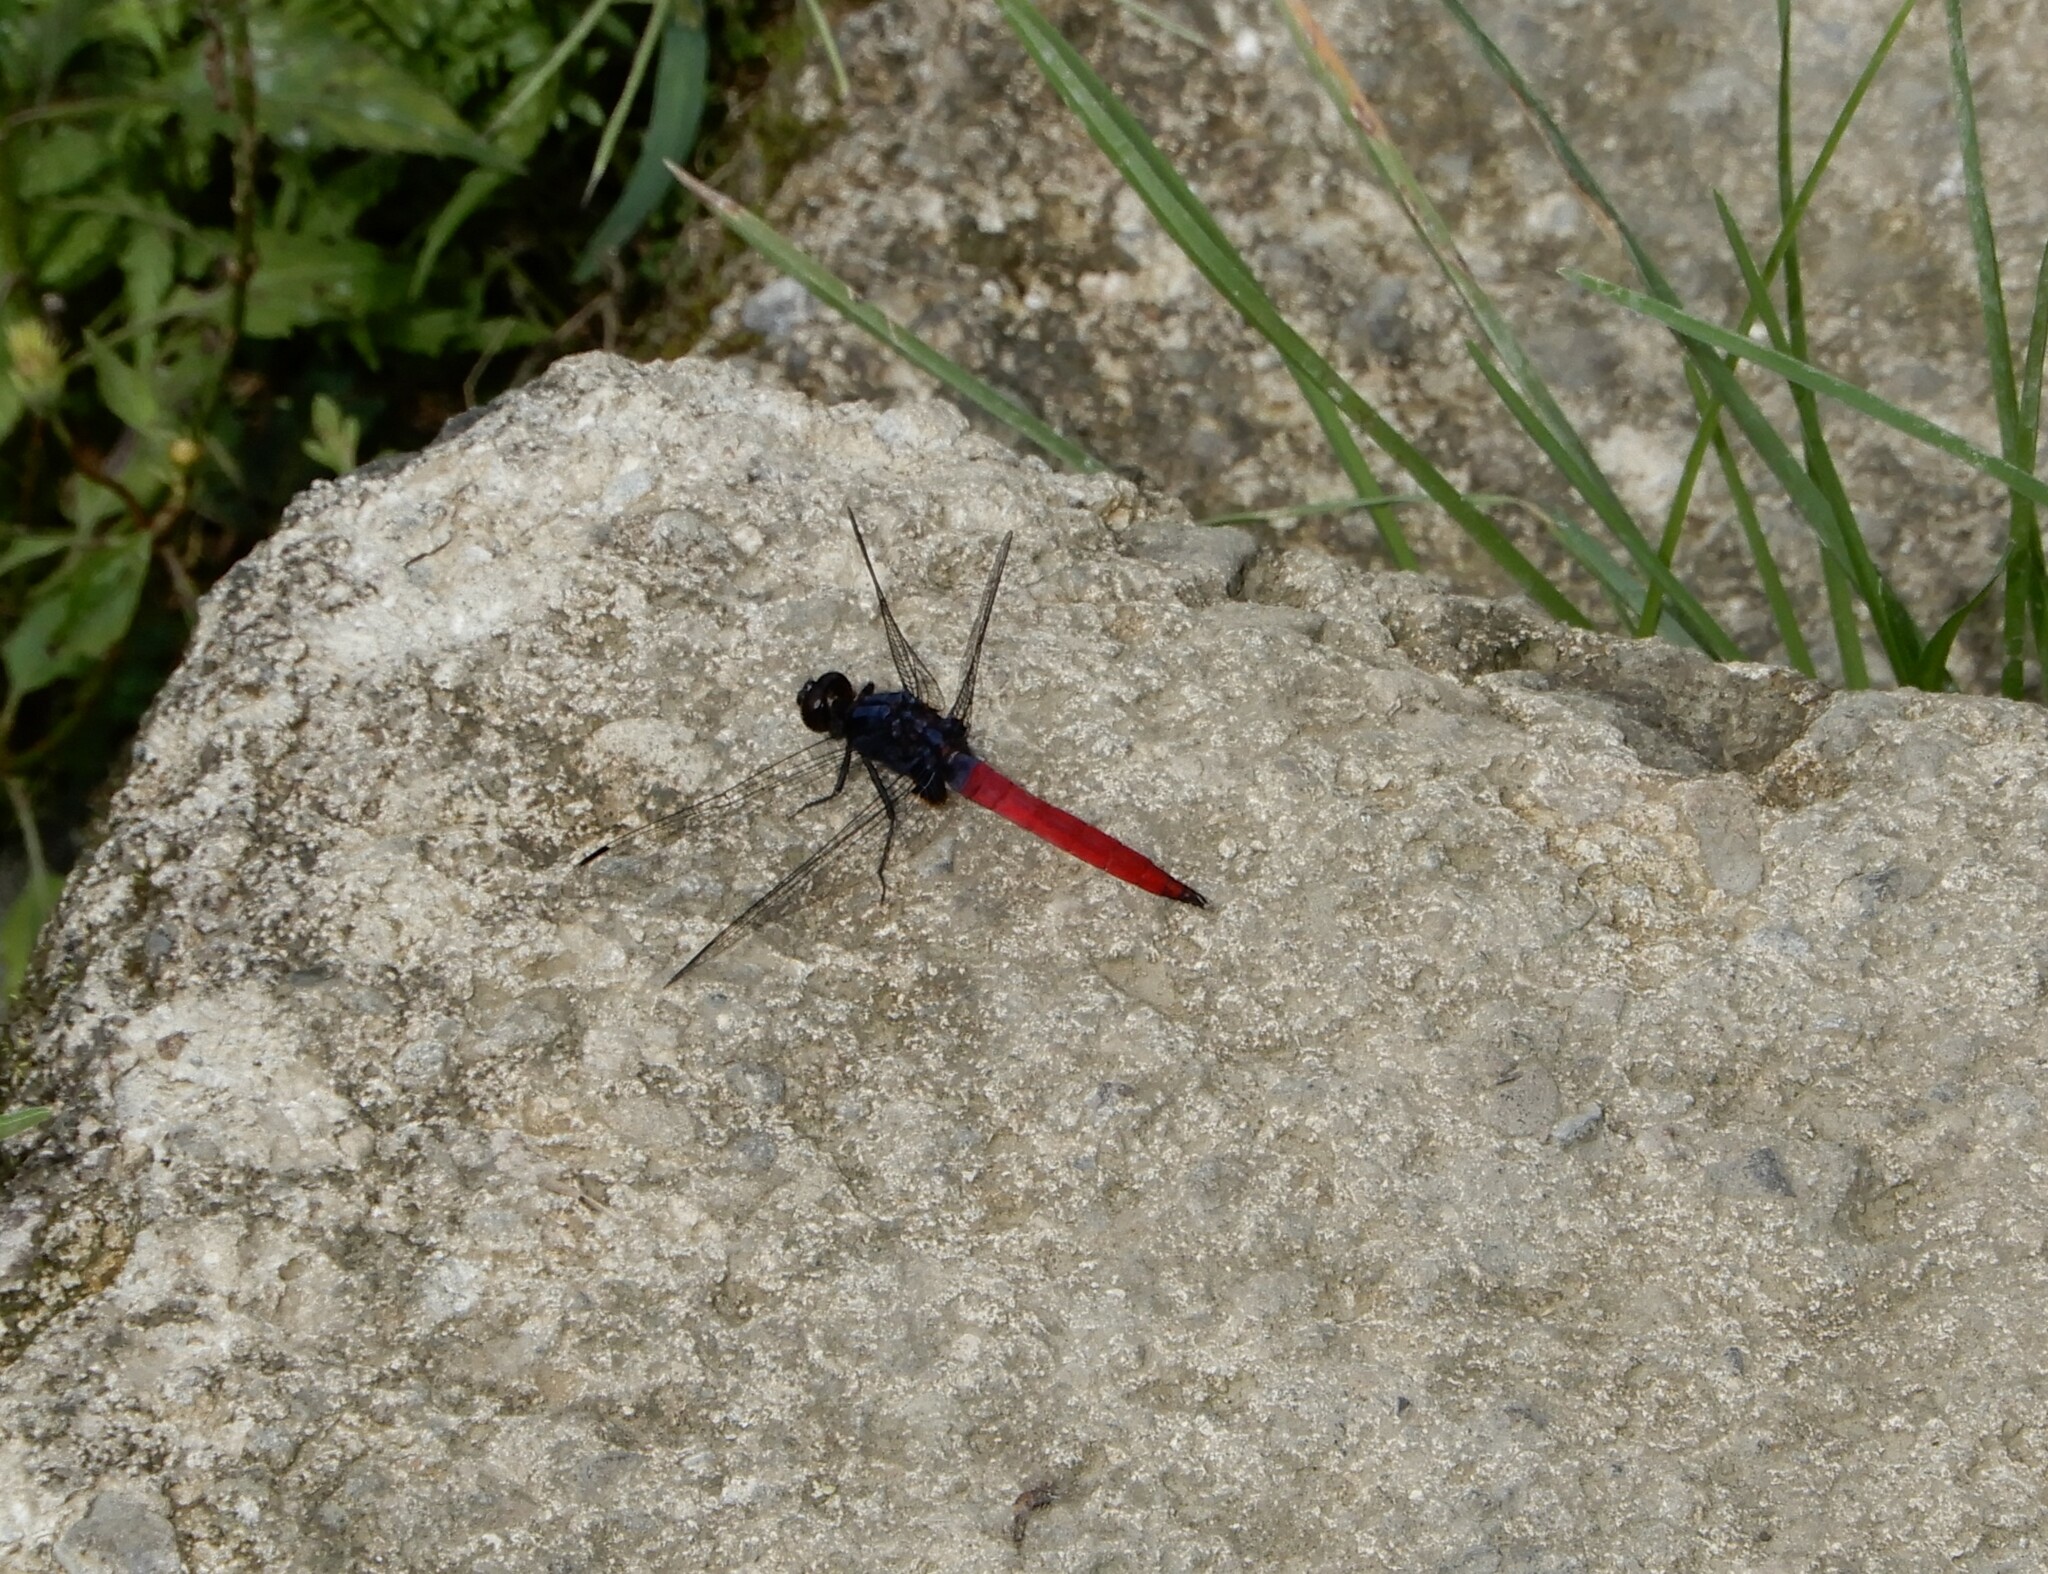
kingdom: Animalia
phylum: Arthropoda
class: Insecta
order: Odonata
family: Libellulidae
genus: Orthetrum
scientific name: Orthetrum pruinosum
